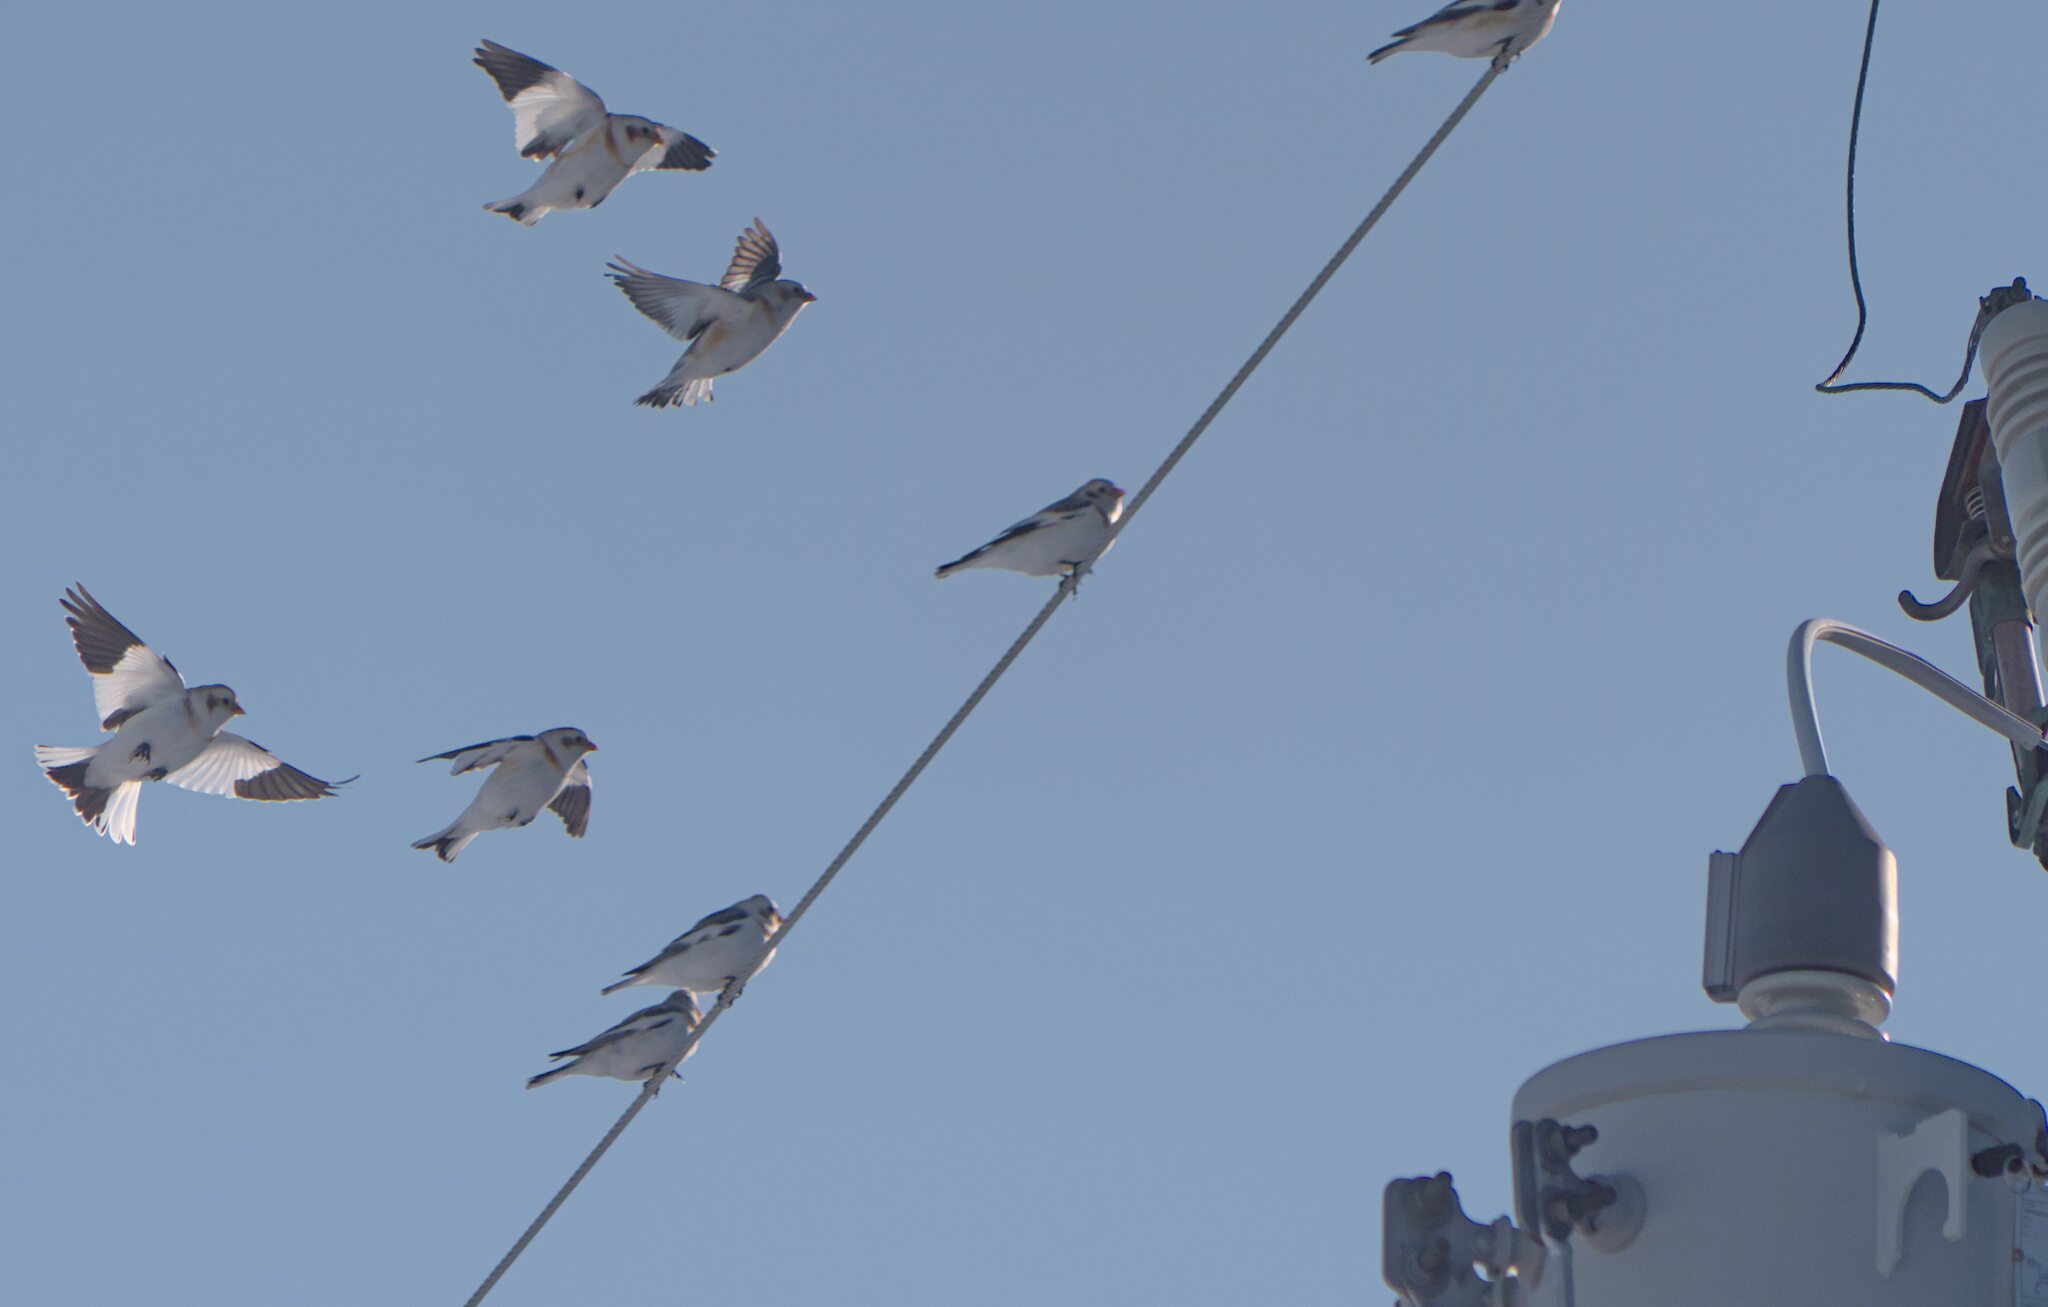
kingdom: Animalia
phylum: Chordata
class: Aves
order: Passeriformes
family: Calcariidae
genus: Plectrophenax
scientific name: Plectrophenax nivalis
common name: Snow bunting
